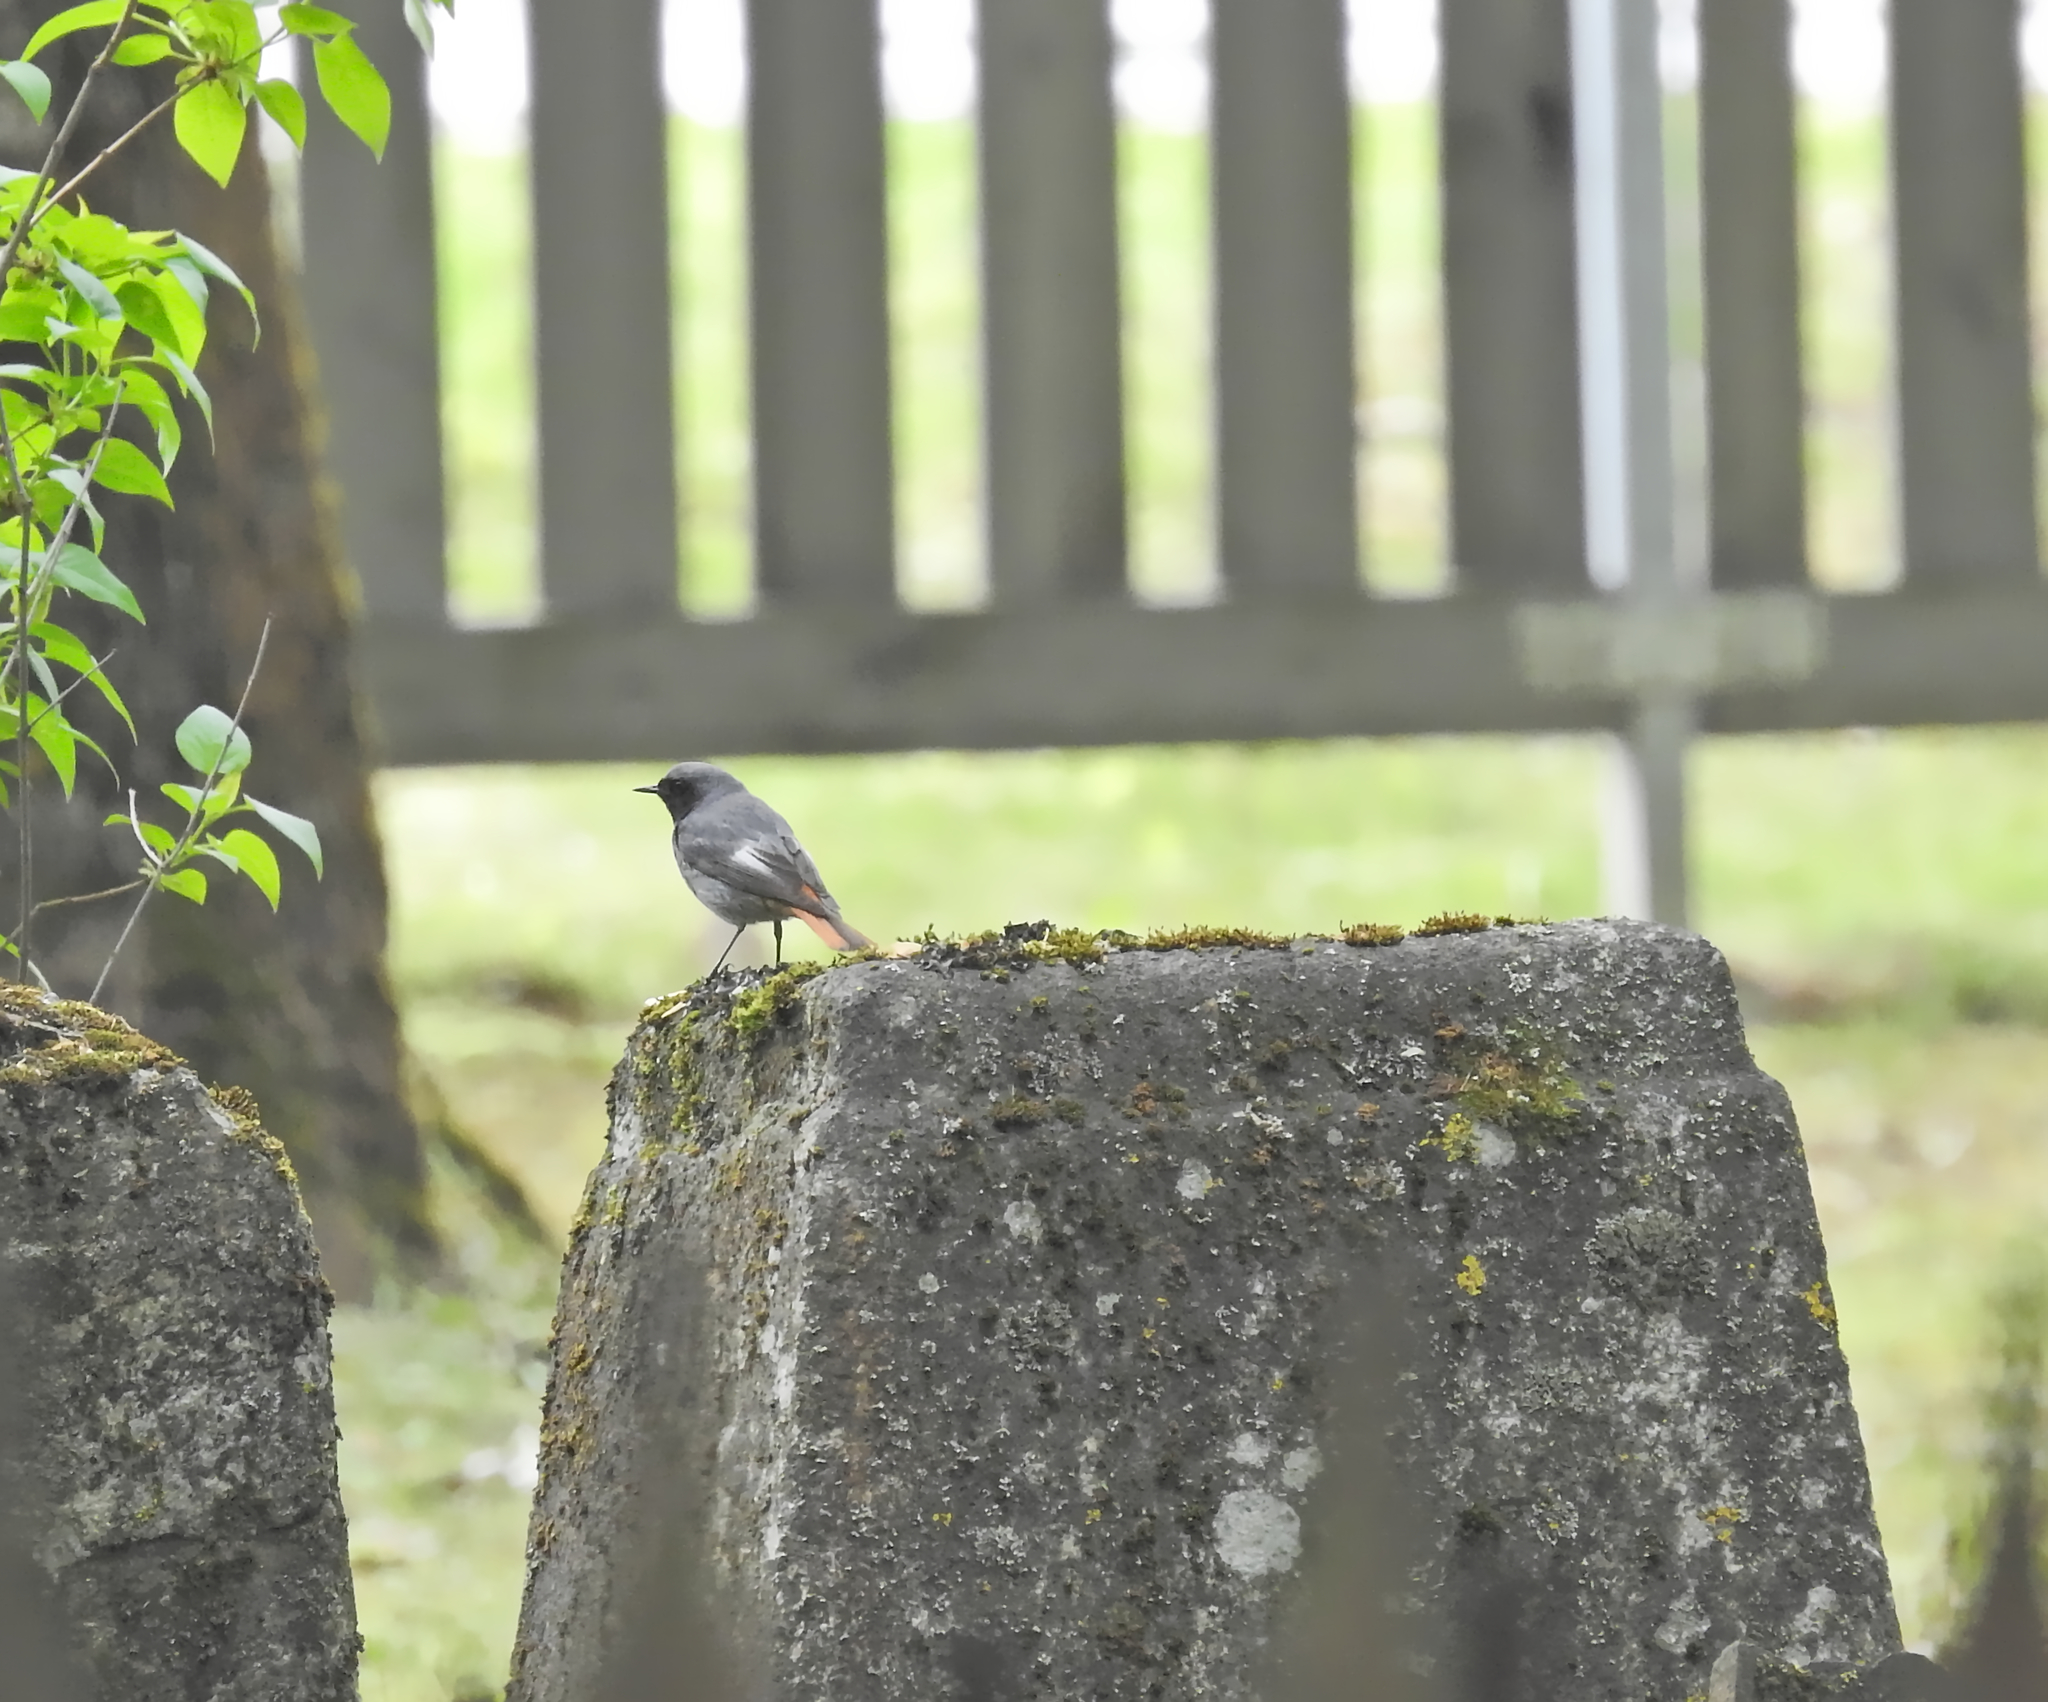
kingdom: Animalia
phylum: Chordata
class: Aves
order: Passeriformes
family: Muscicapidae
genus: Phoenicurus
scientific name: Phoenicurus ochruros
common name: Black redstart
